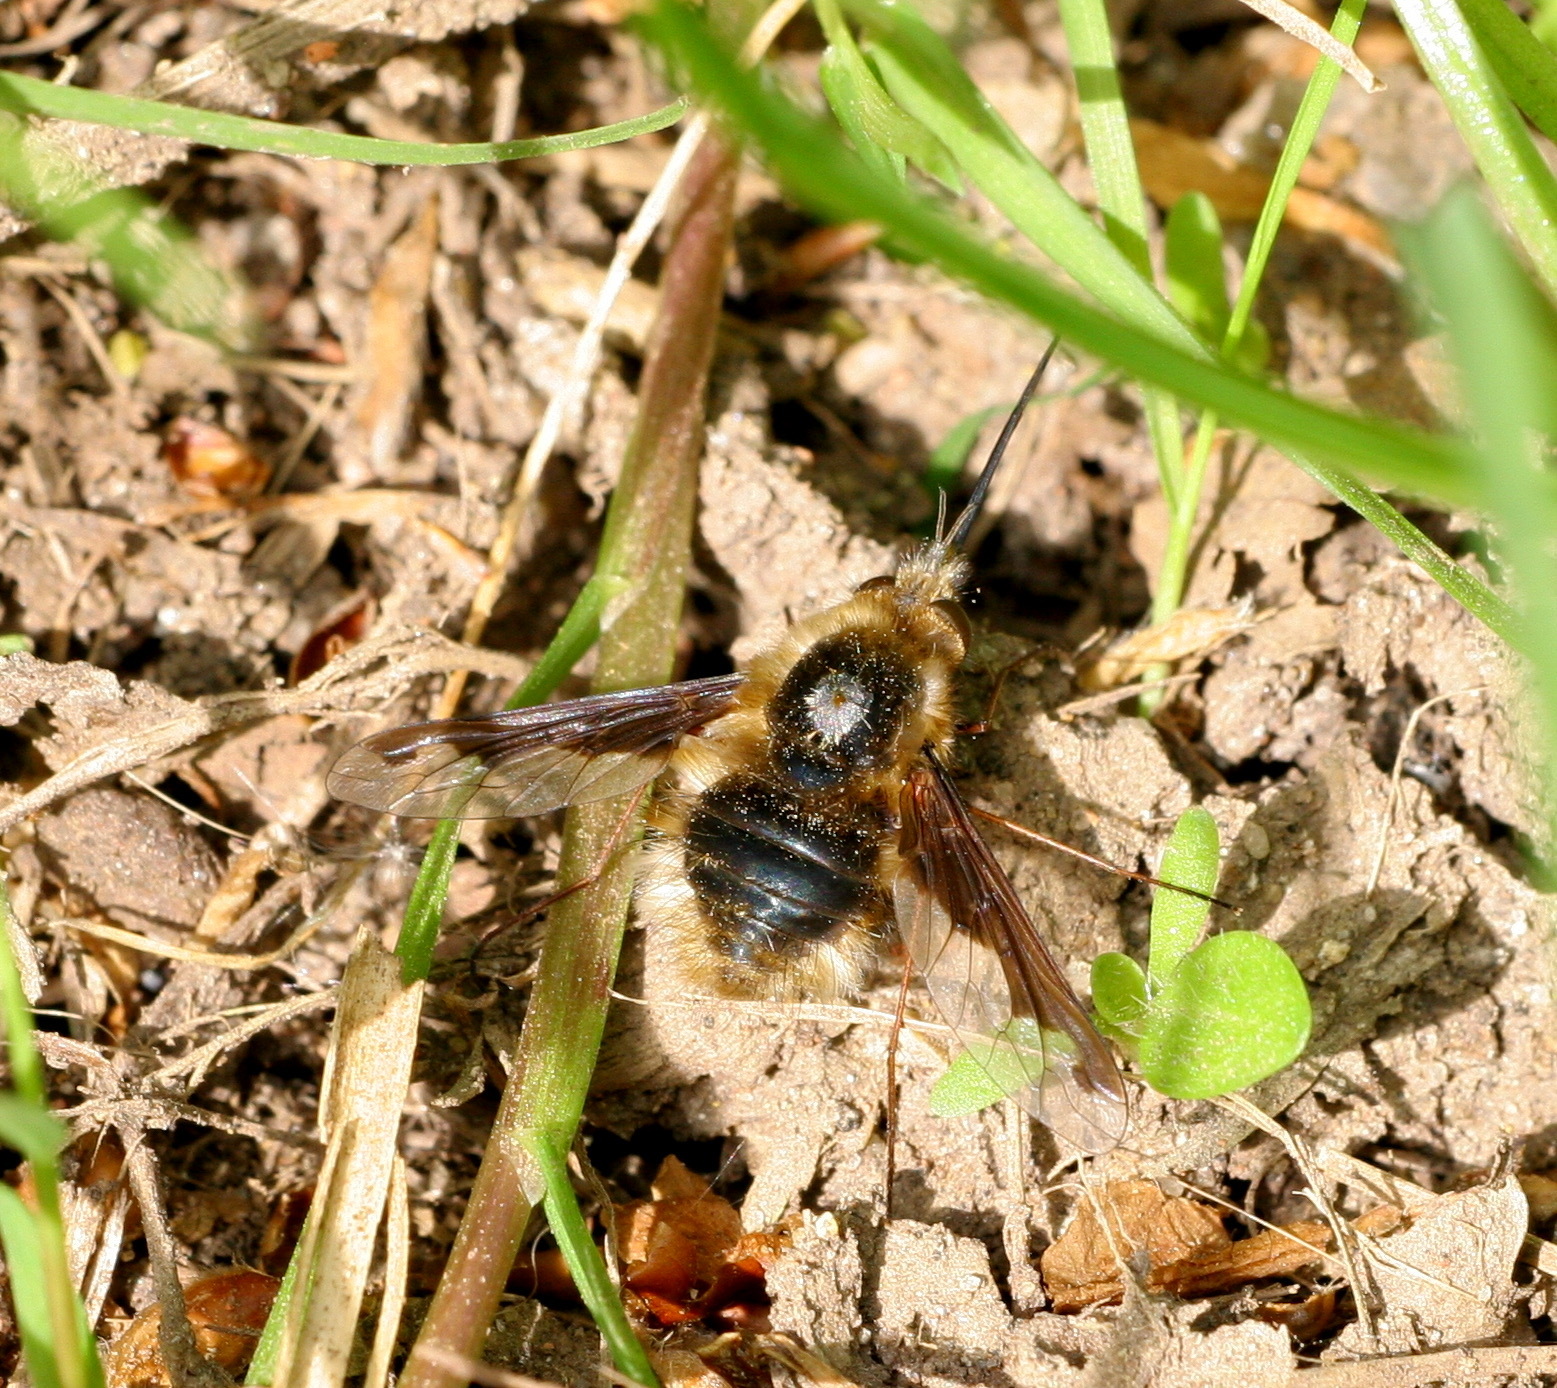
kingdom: Animalia
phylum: Arthropoda
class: Insecta
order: Diptera
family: Bombyliidae
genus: Bombylius
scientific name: Bombylius major
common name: Bee fly
